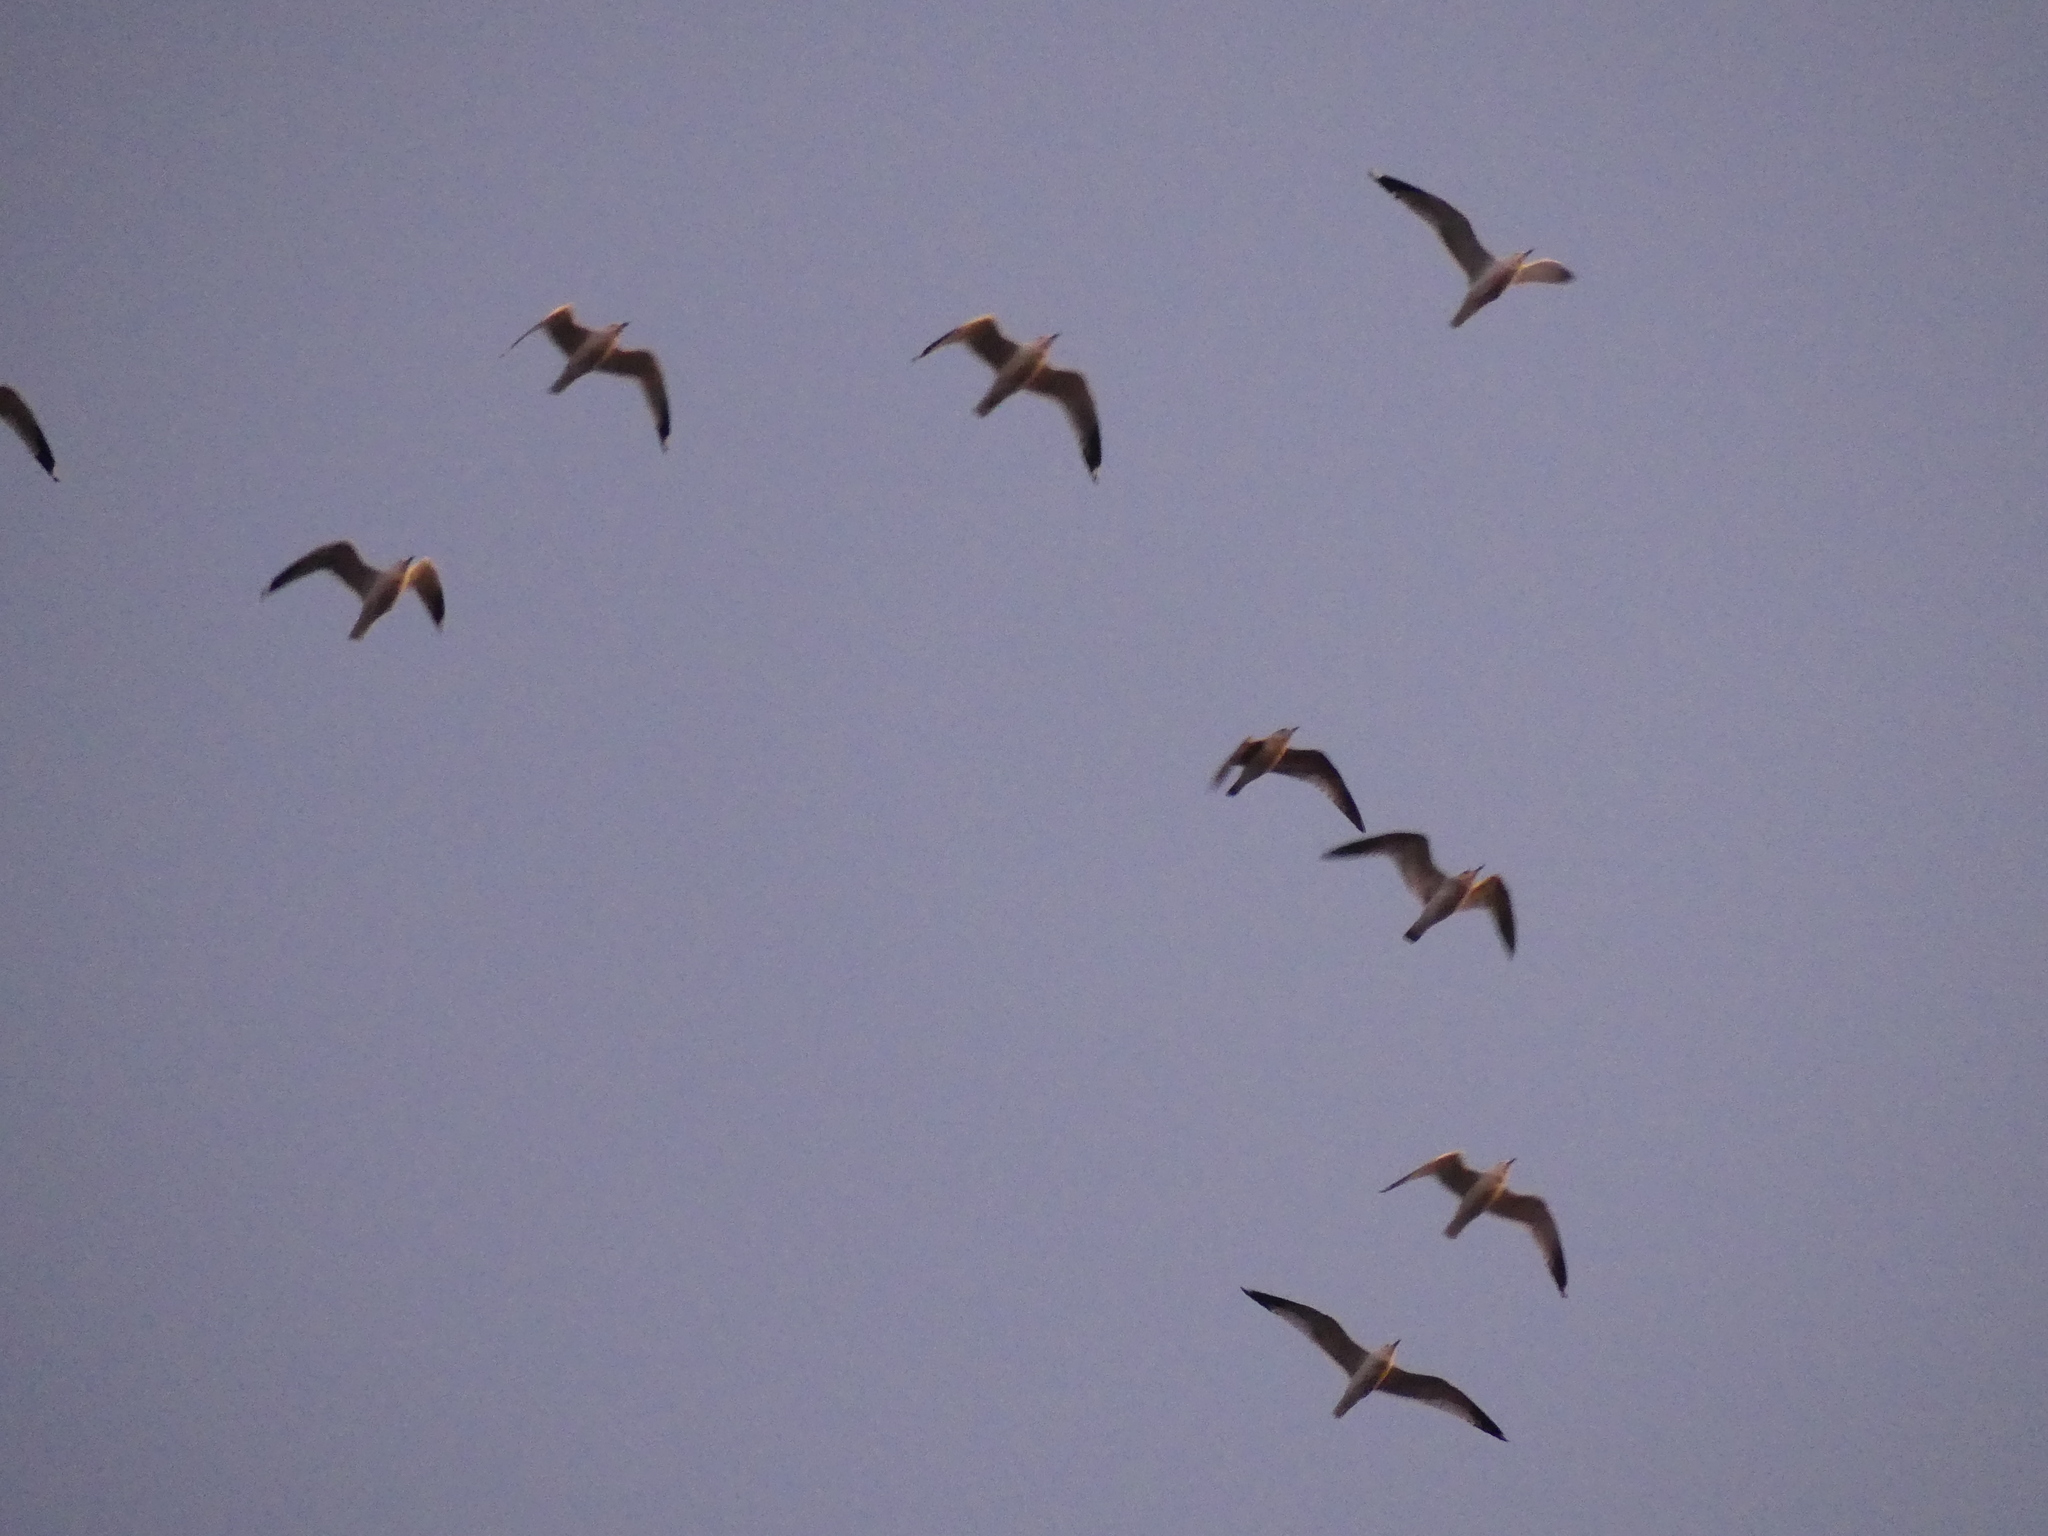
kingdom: Animalia
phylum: Chordata
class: Aves
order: Charadriiformes
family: Laridae
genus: Larus
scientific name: Larus canus
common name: Mew gull
